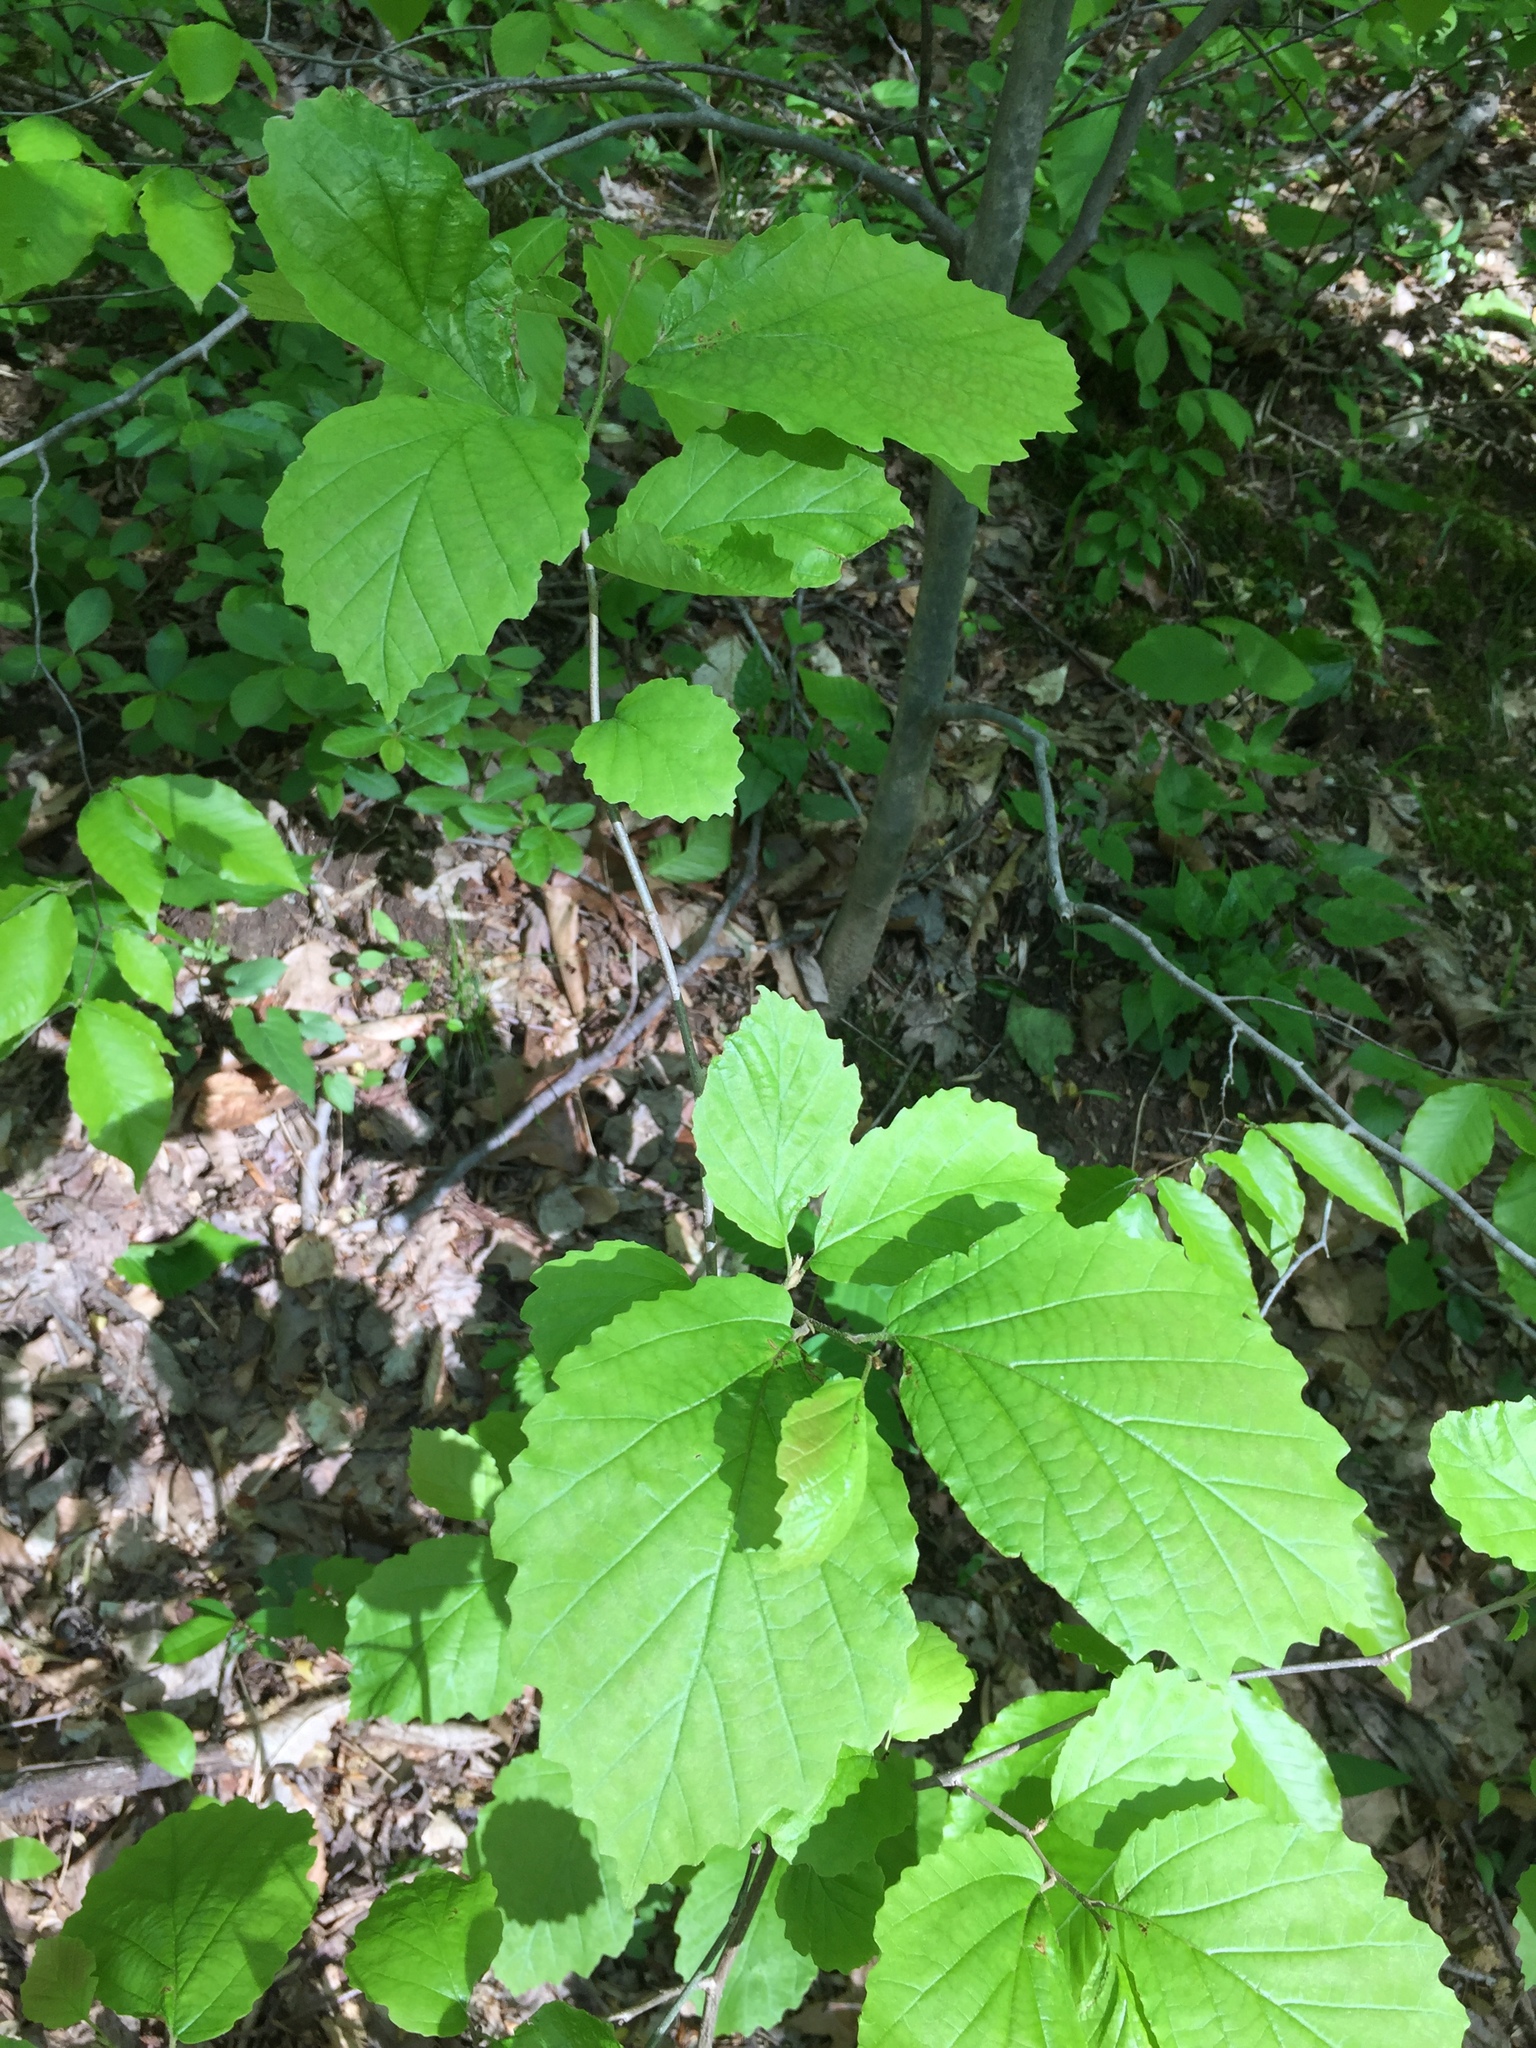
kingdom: Plantae
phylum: Tracheophyta
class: Magnoliopsida
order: Saxifragales
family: Hamamelidaceae
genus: Hamamelis
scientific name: Hamamelis virginiana
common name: Witch-hazel
